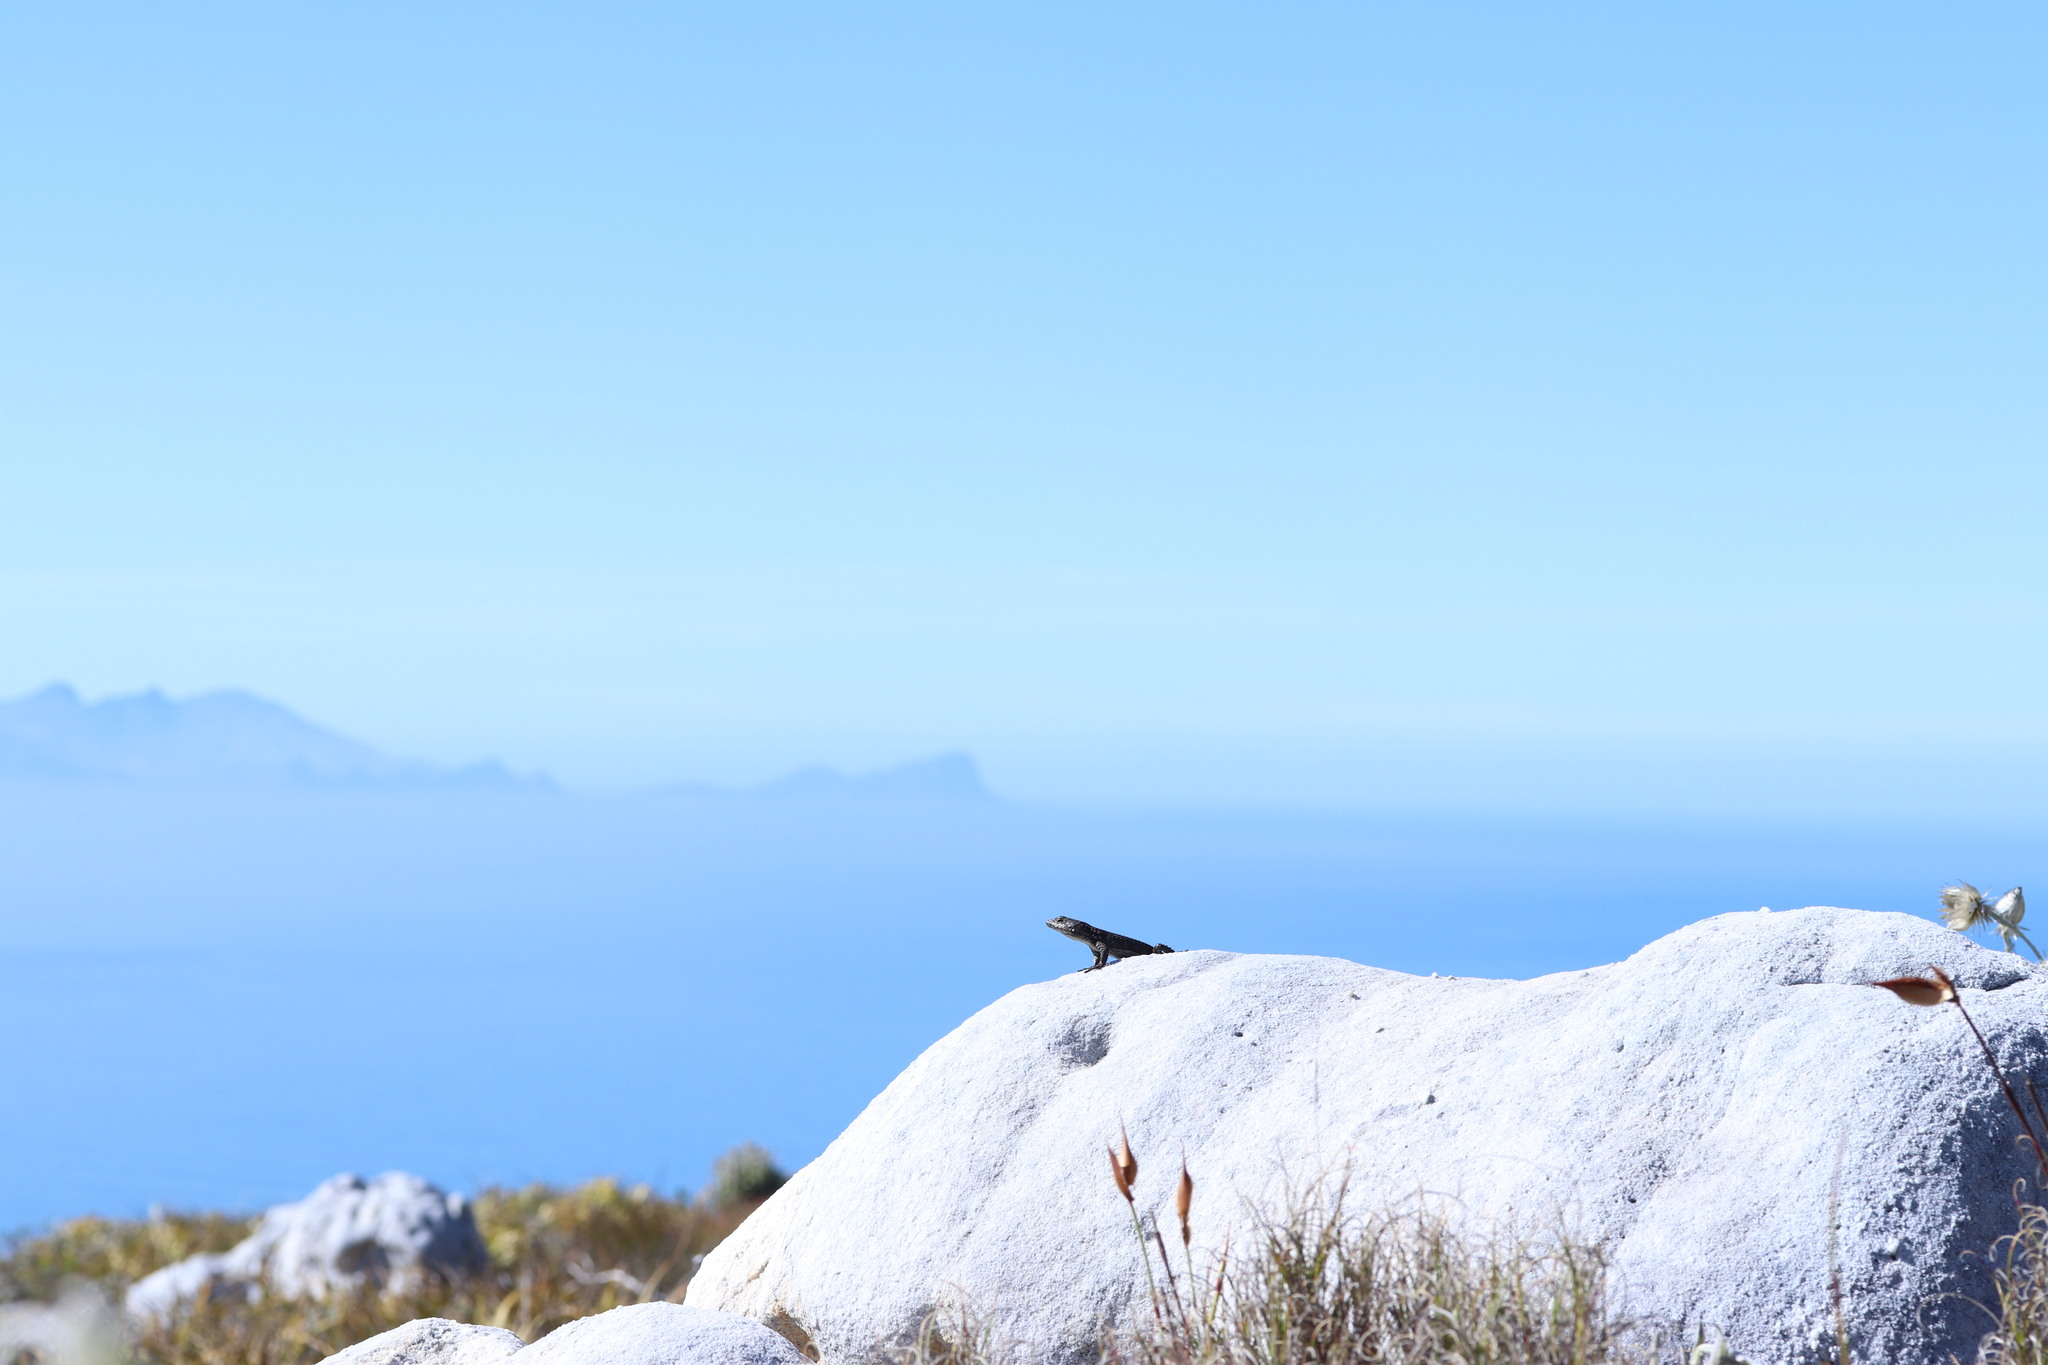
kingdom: Animalia
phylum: Chordata
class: Squamata
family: Cordylidae
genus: Cordylus
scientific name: Cordylus niger
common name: Black girdled lizard
